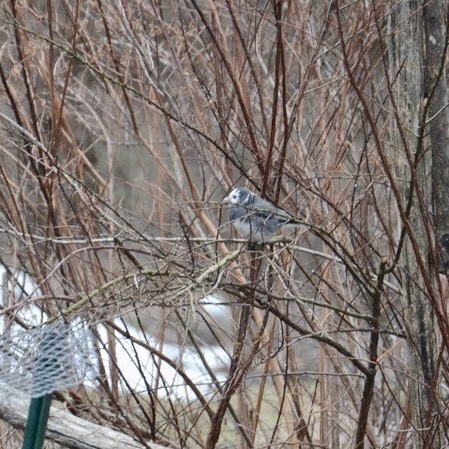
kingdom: Animalia
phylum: Chordata
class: Aves
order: Passeriformes
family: Passerellidae
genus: Junco
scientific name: Junco hyemalis
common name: Dark-eyed junco
